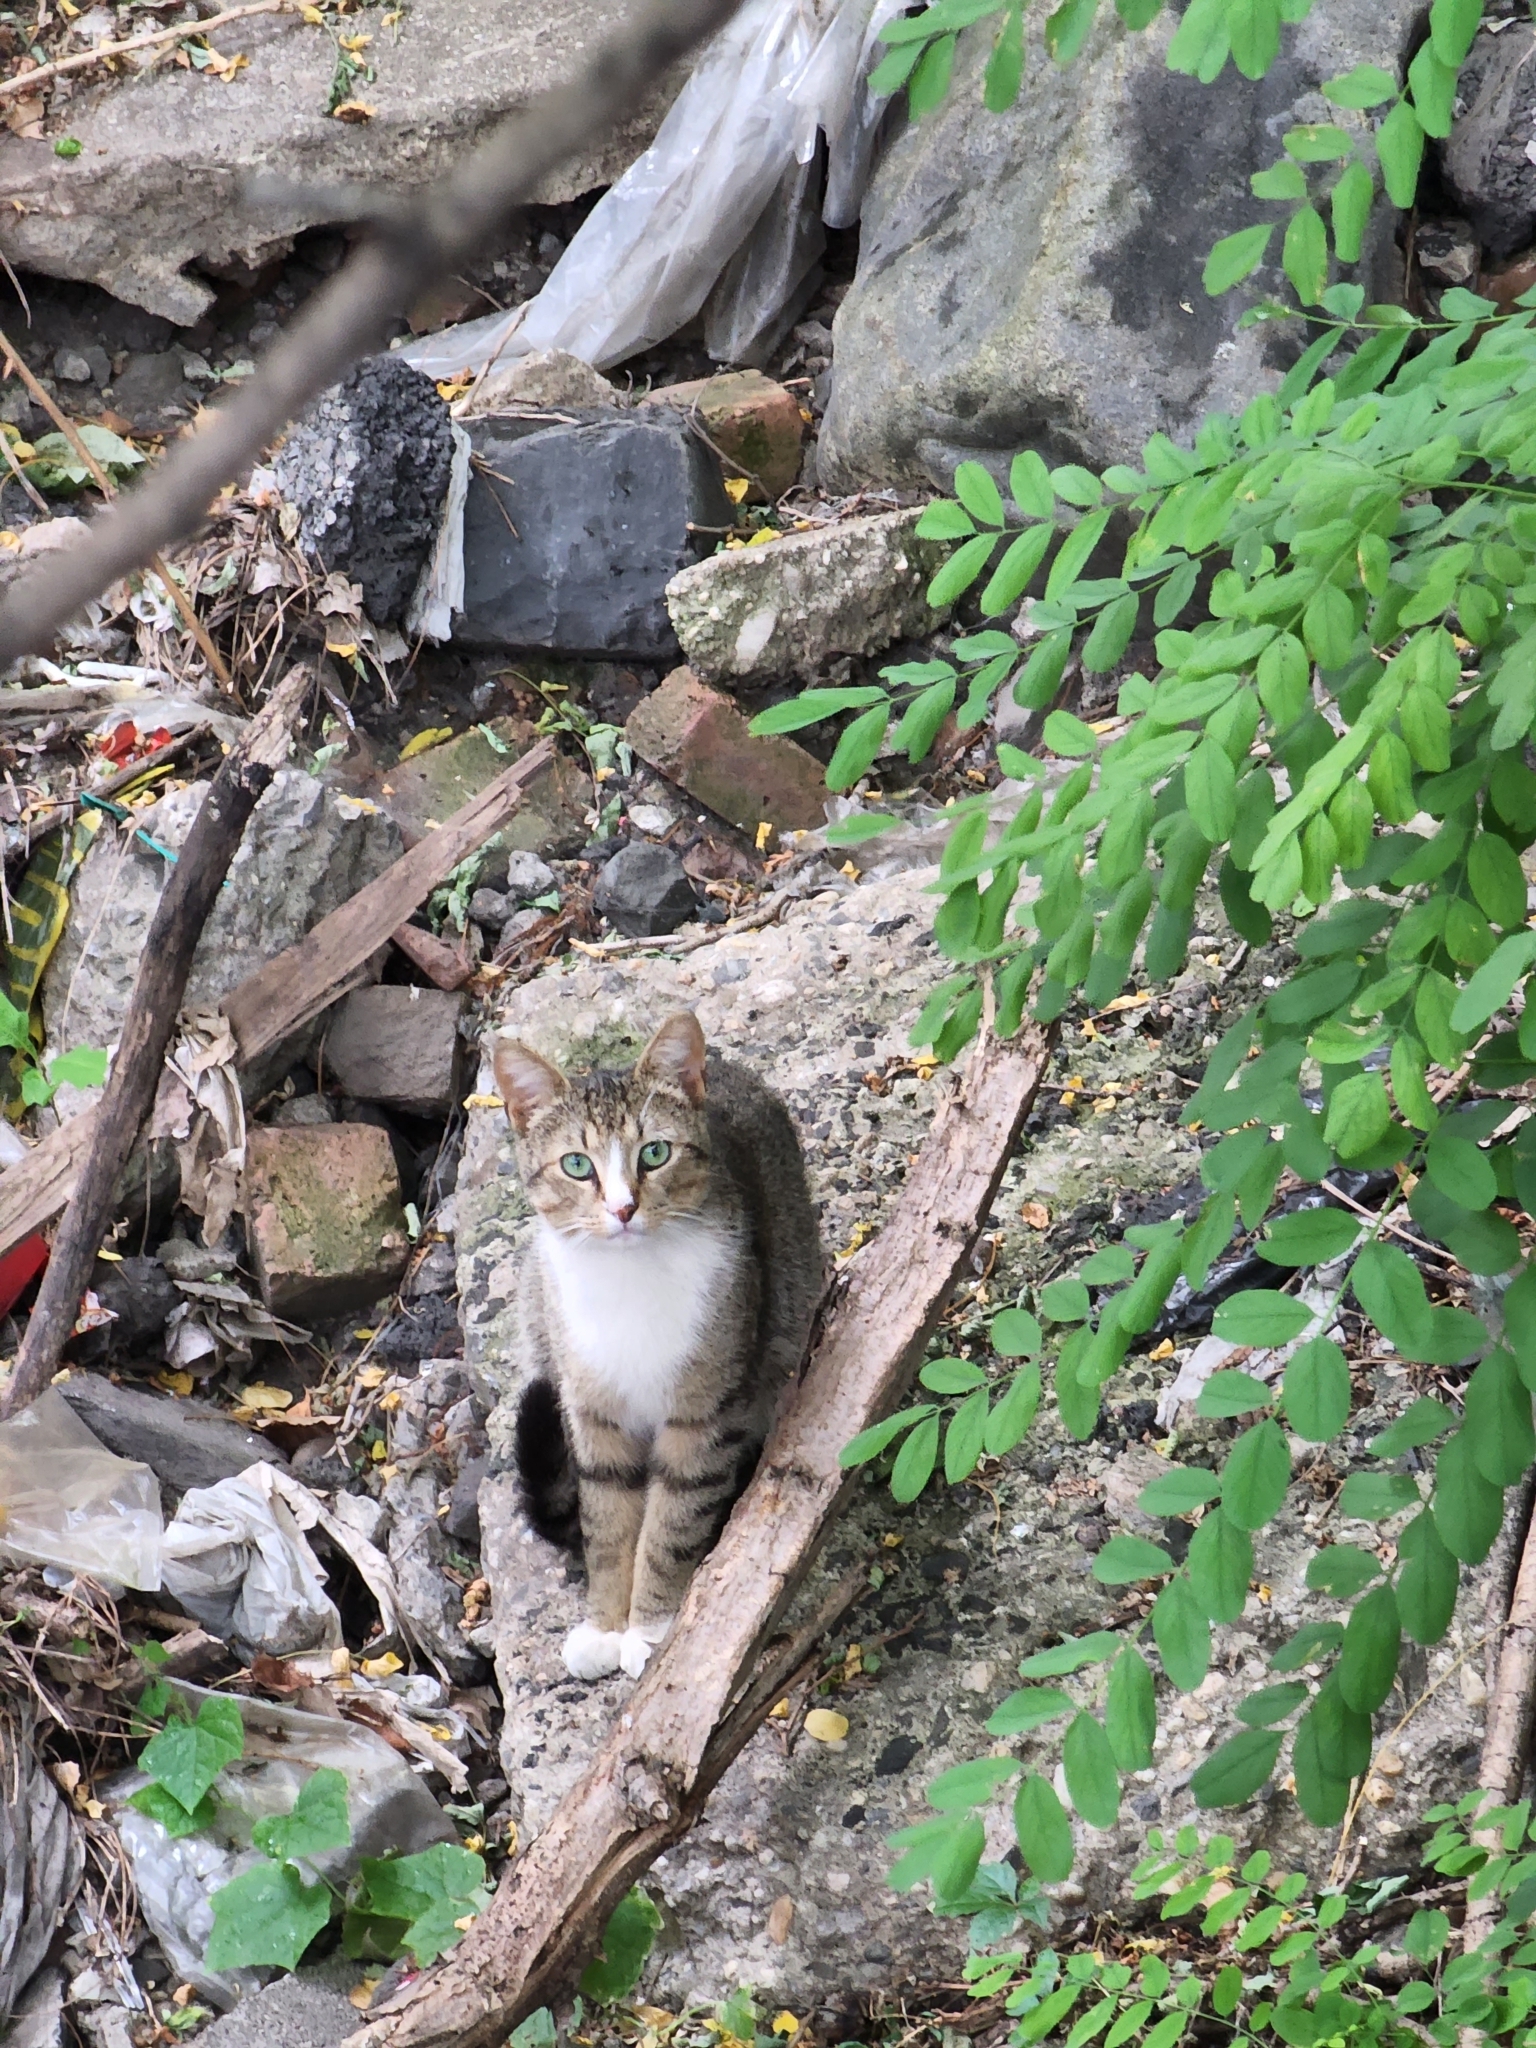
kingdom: Animalia
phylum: Chordata
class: Mammalia
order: Carnivora
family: Felidae
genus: Felis
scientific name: Felis catus
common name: Domestic cat
